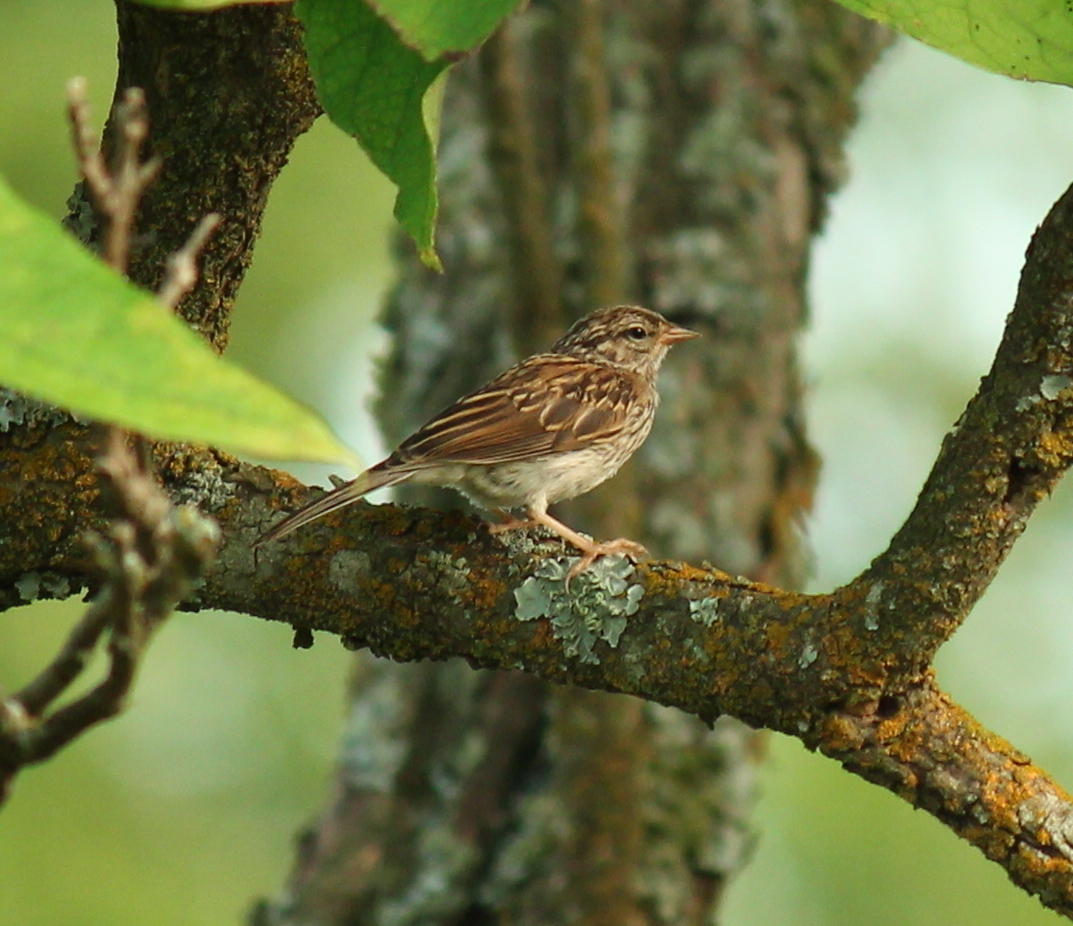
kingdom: Animalia
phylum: Chordata
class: Aves
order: Passeriformes
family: Passerellidae
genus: Spizella
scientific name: Spizella passerina
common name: Chipping sparrow
